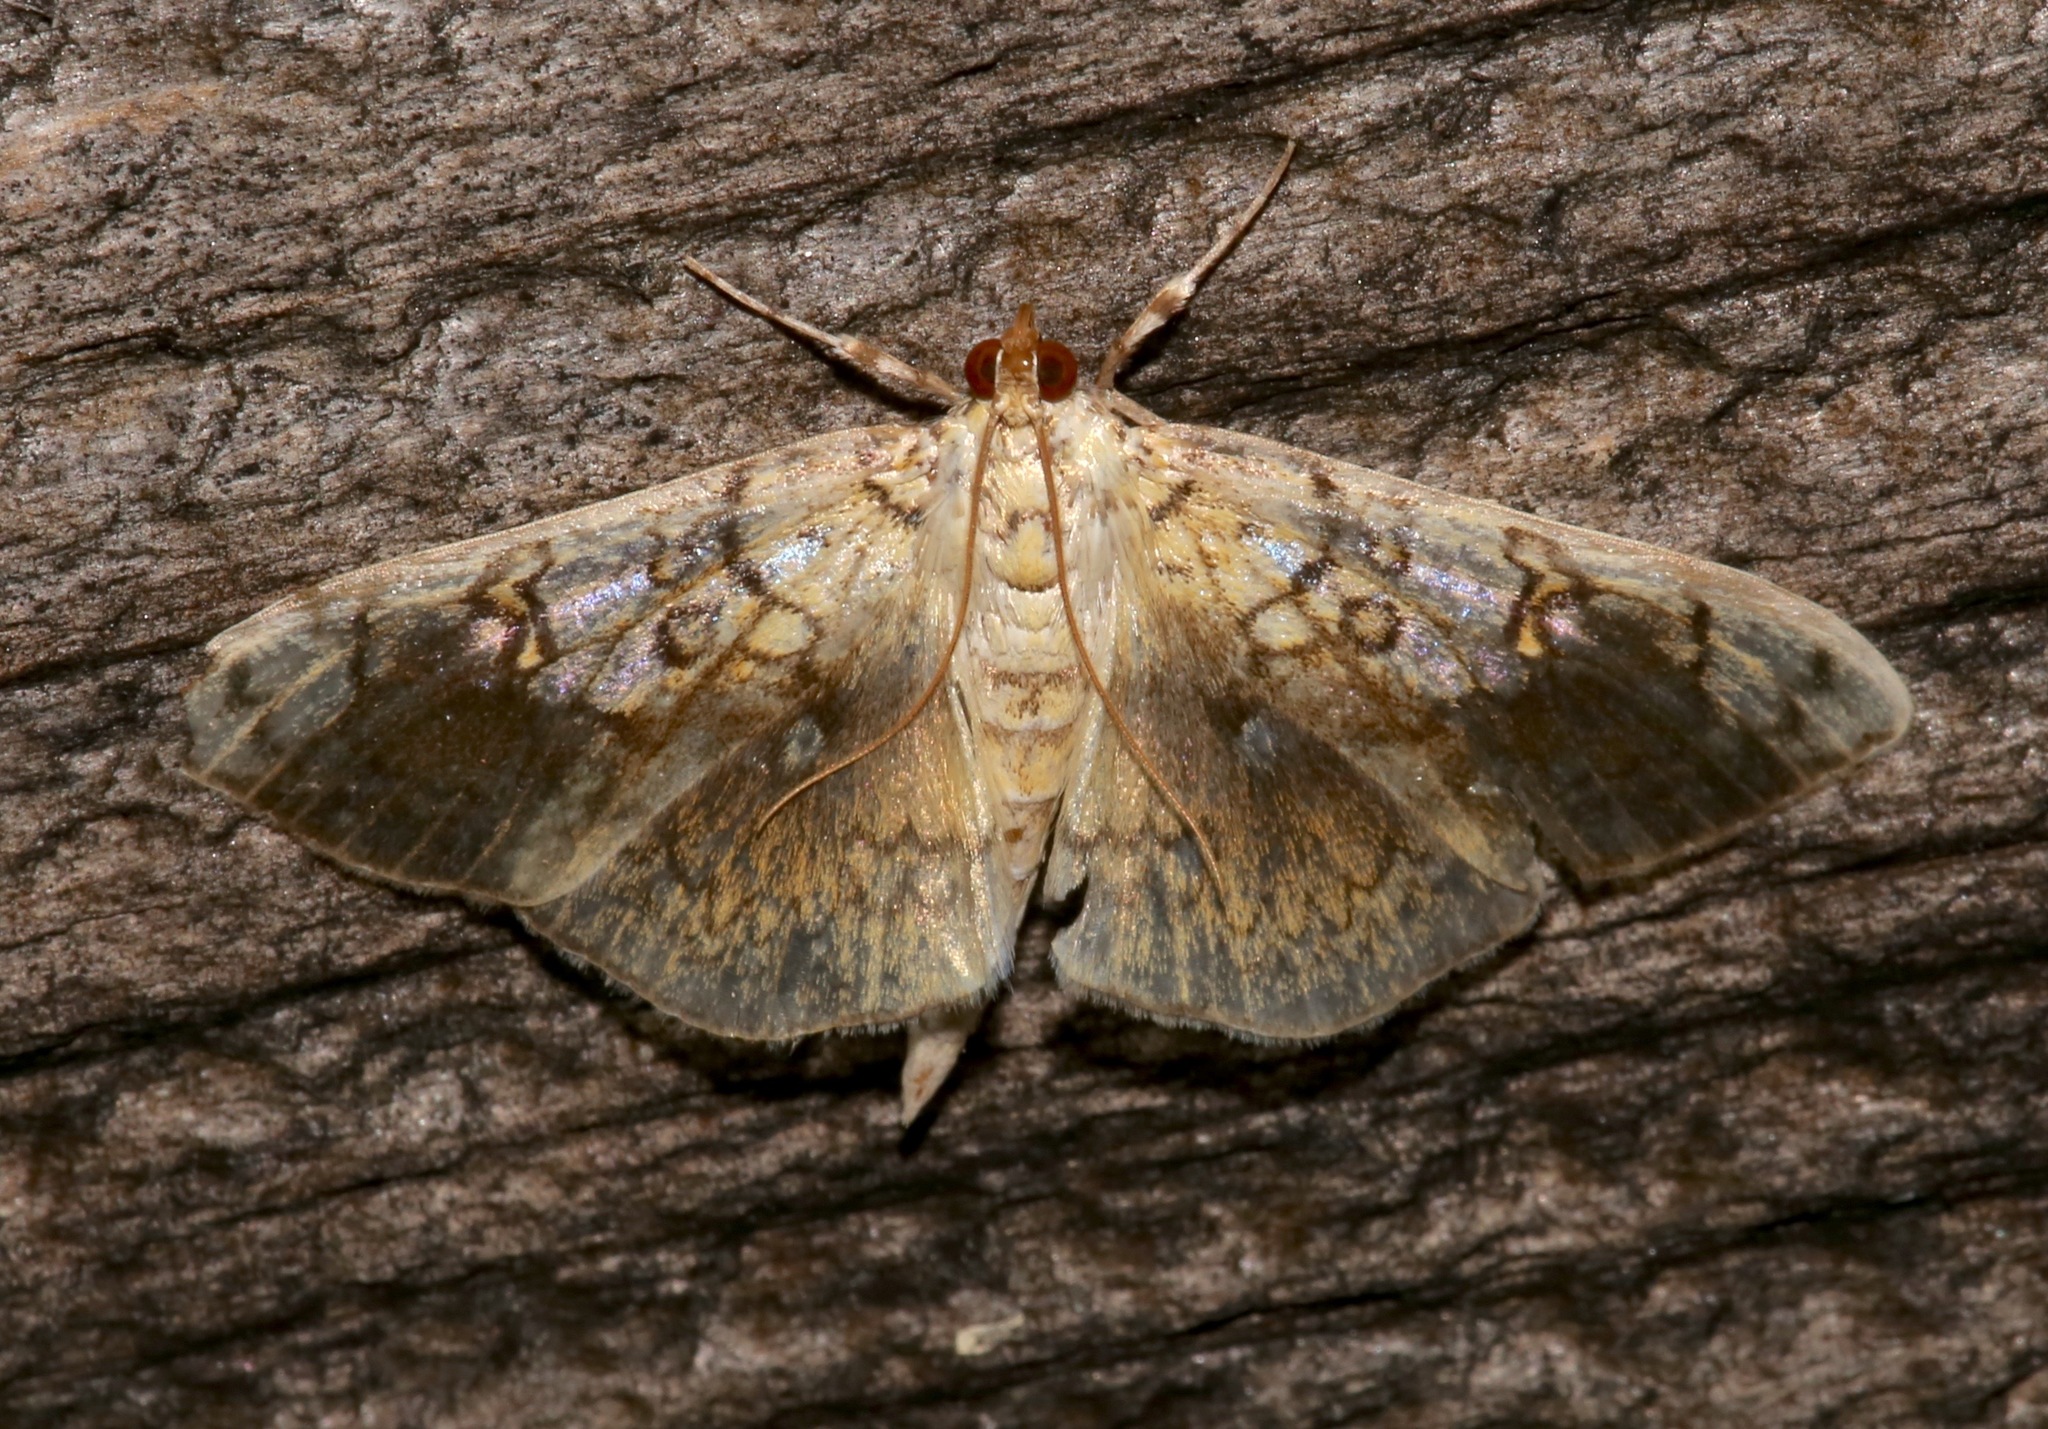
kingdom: Animalia
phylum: Arthropoda
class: Insecta
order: Lepidoptera
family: Crambidae
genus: Pantographa
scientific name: Pantographa limata
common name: Basswood leafroller moth
